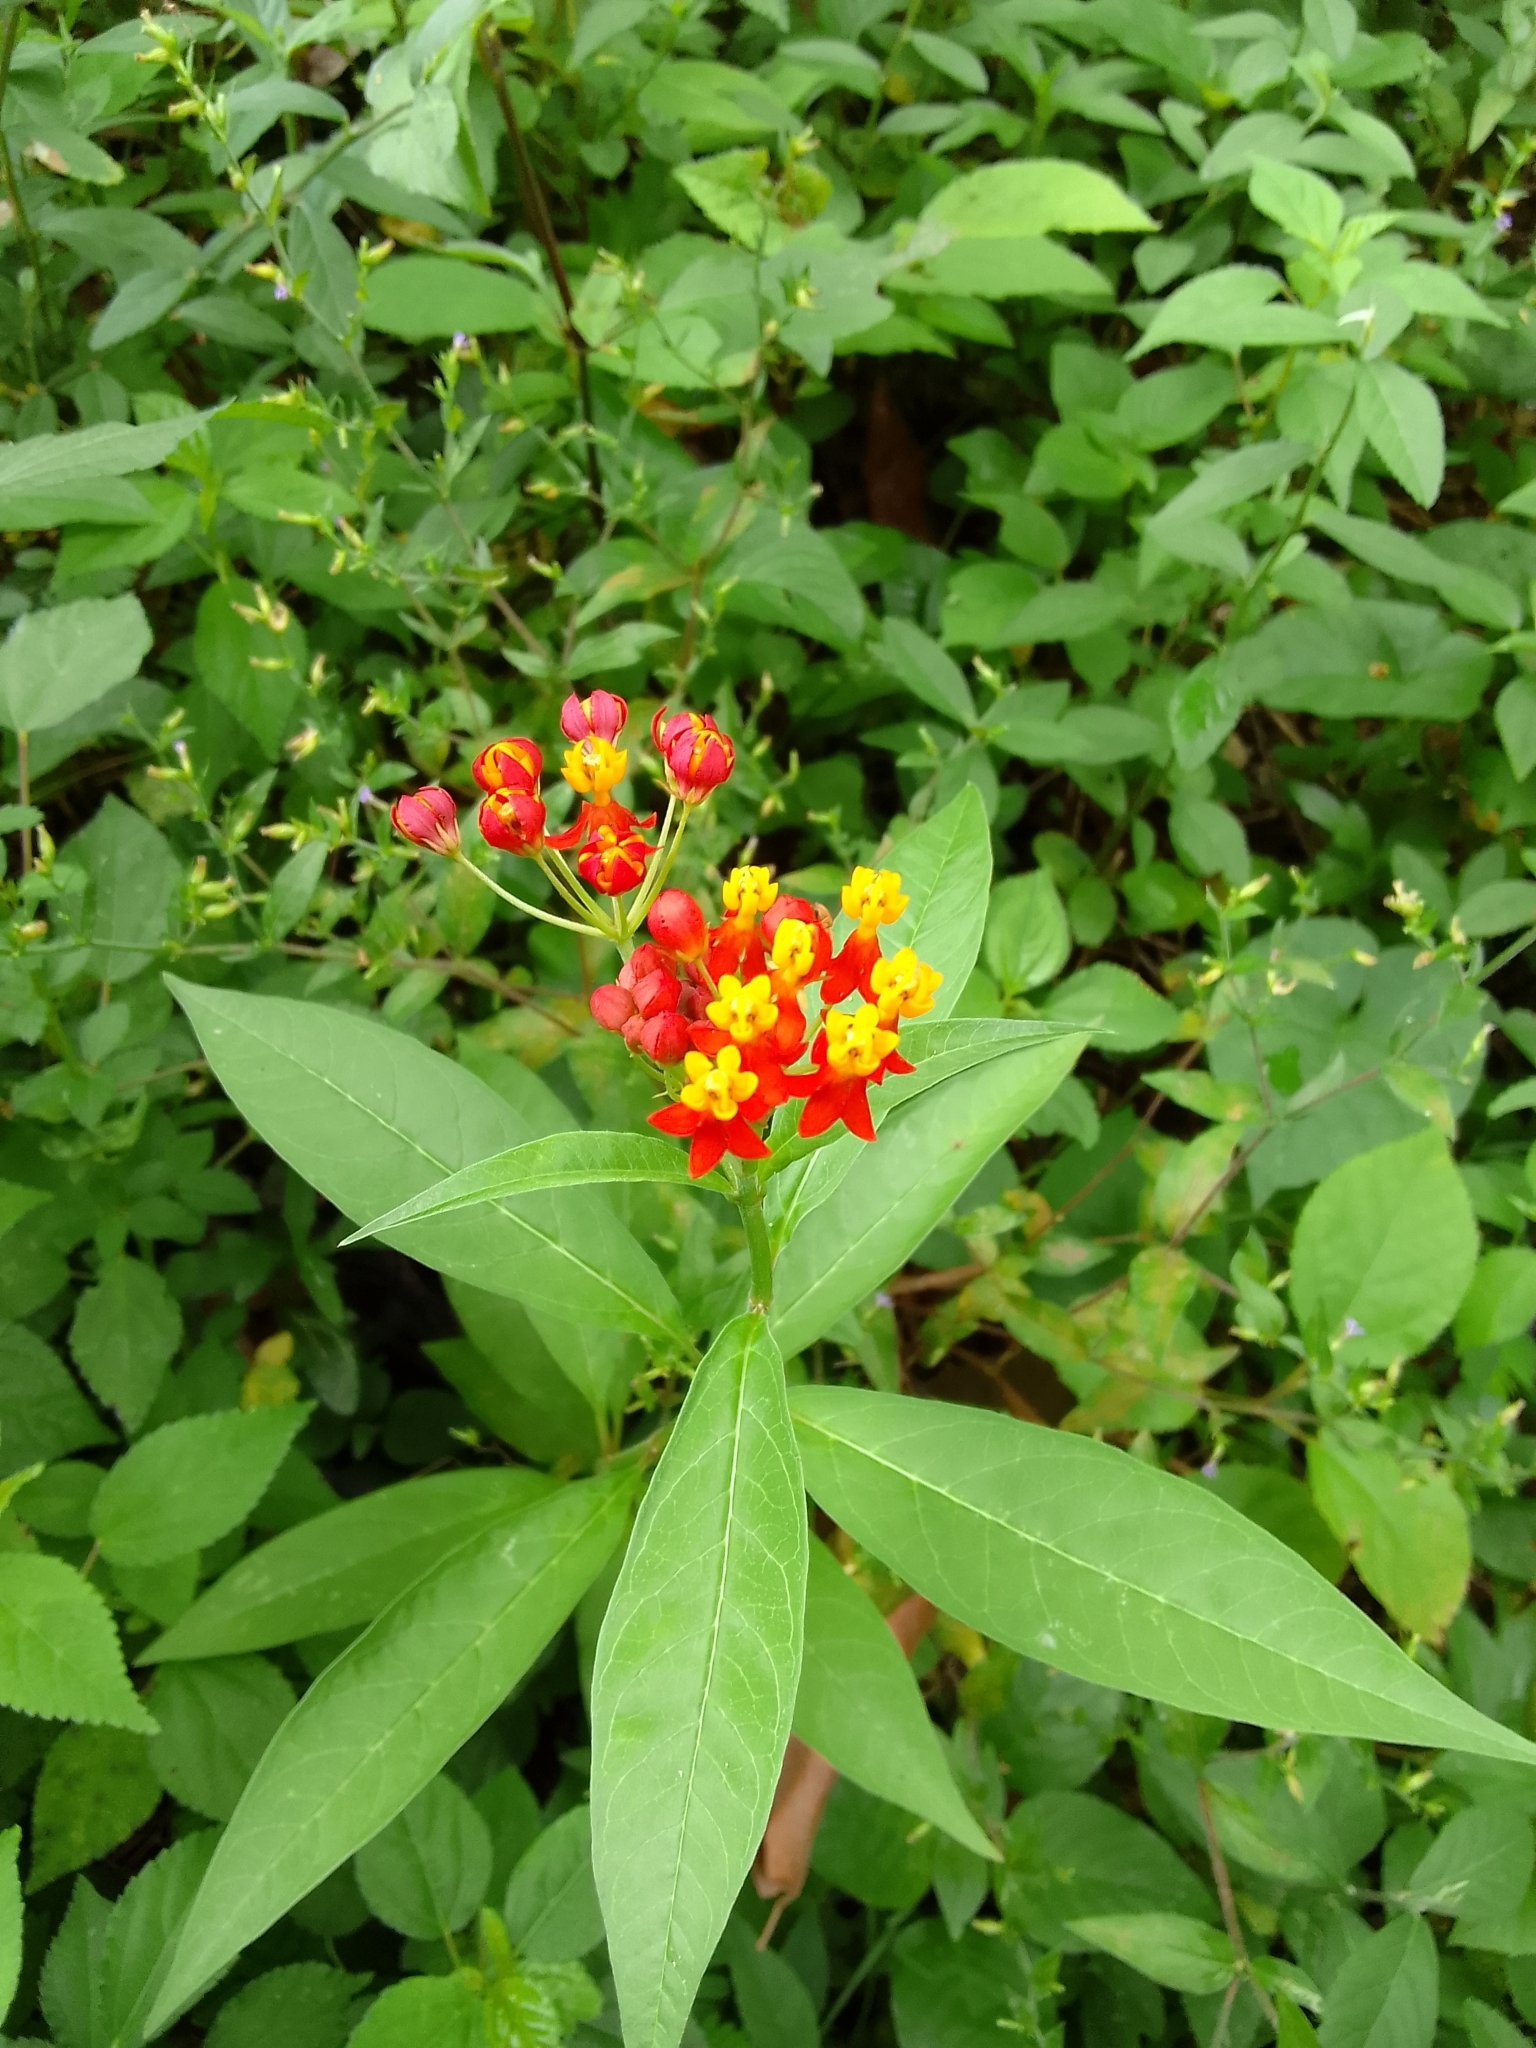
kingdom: Plantae
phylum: Tracheophyta
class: Magnoliopsida
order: Gentianales
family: Apocynaceae
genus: Asclepias
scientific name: Asclepias curassavica
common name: Bloodflower
